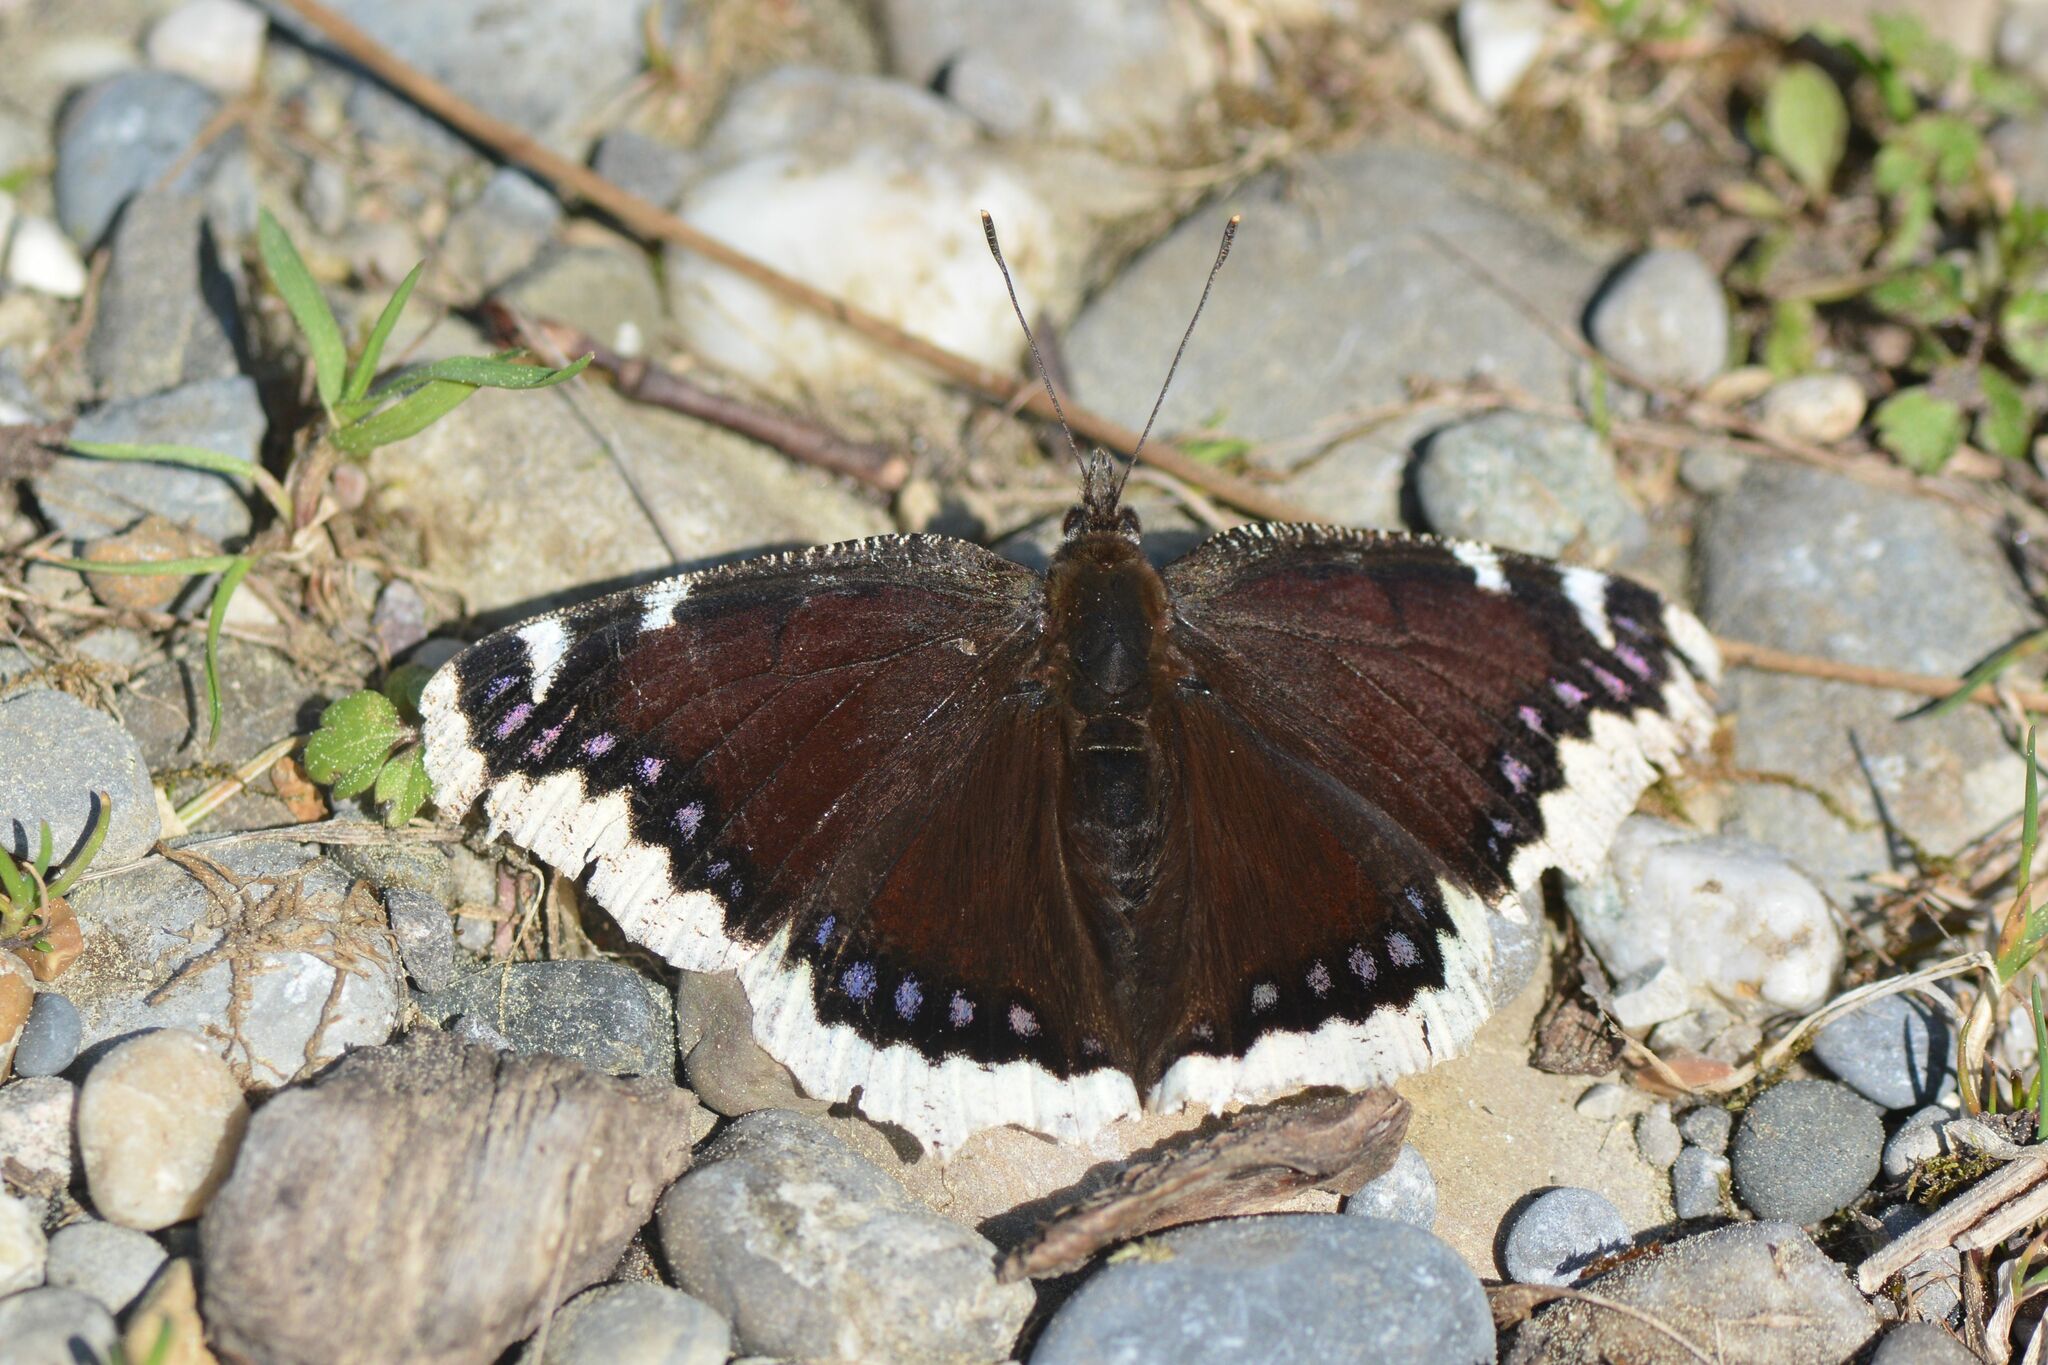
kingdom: Animalia
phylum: Arthropoda
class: Insecta
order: Lepidoptera
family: Nymphalidae
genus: Nymphalis
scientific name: Nymphalis antiopa
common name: Camberwell beauty
